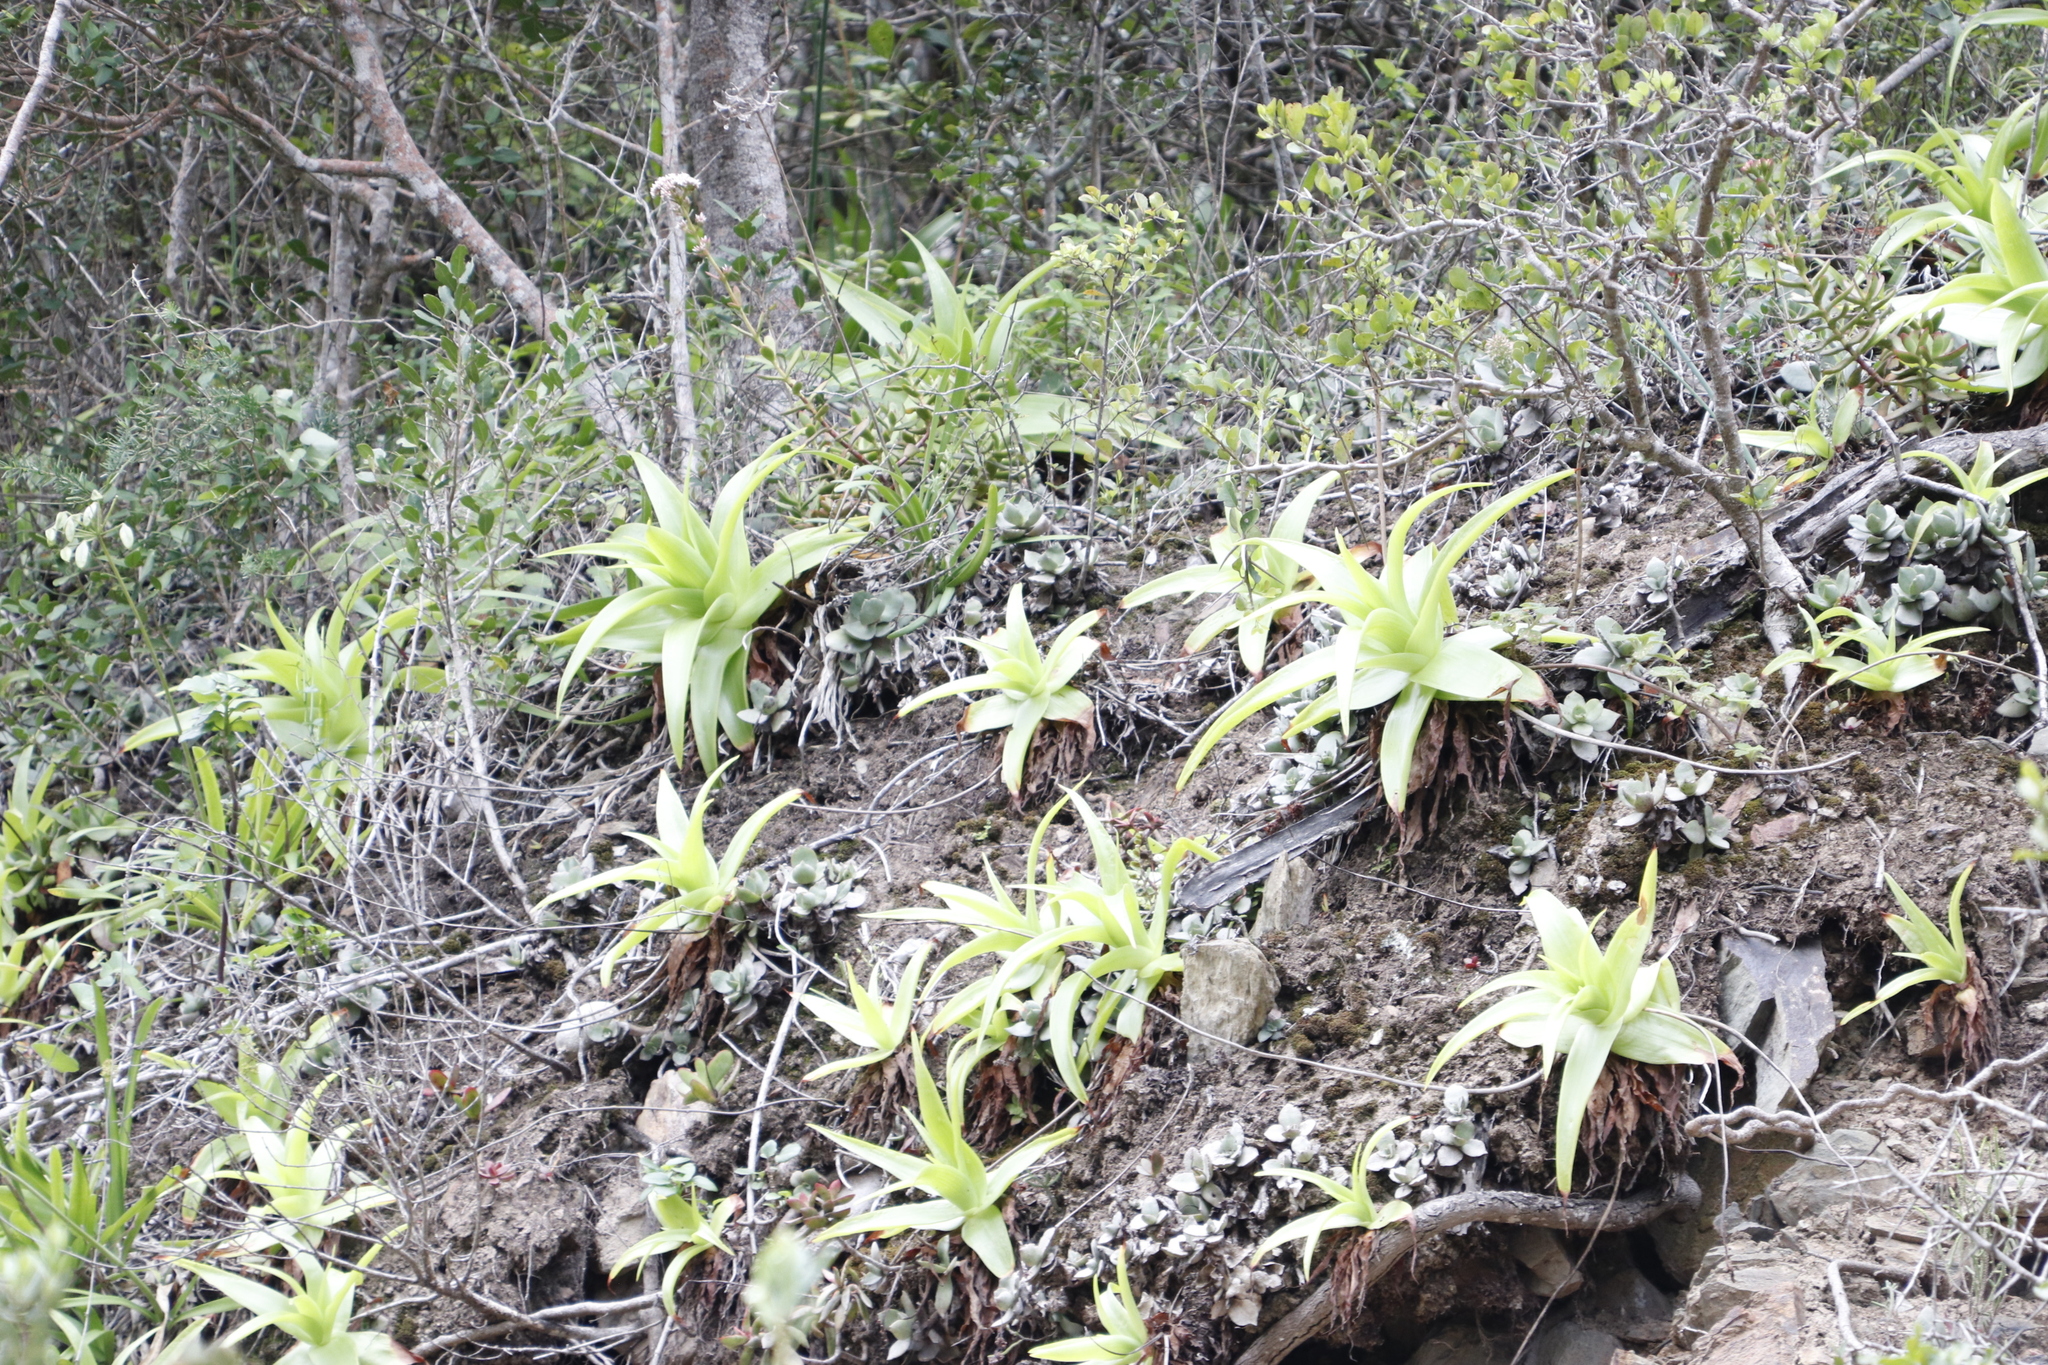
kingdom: Plantae
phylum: Tracheophyta
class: Liliopsida
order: Asparagales
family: Asphodelaceae
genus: Bulbine
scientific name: Bulbine latifolia
